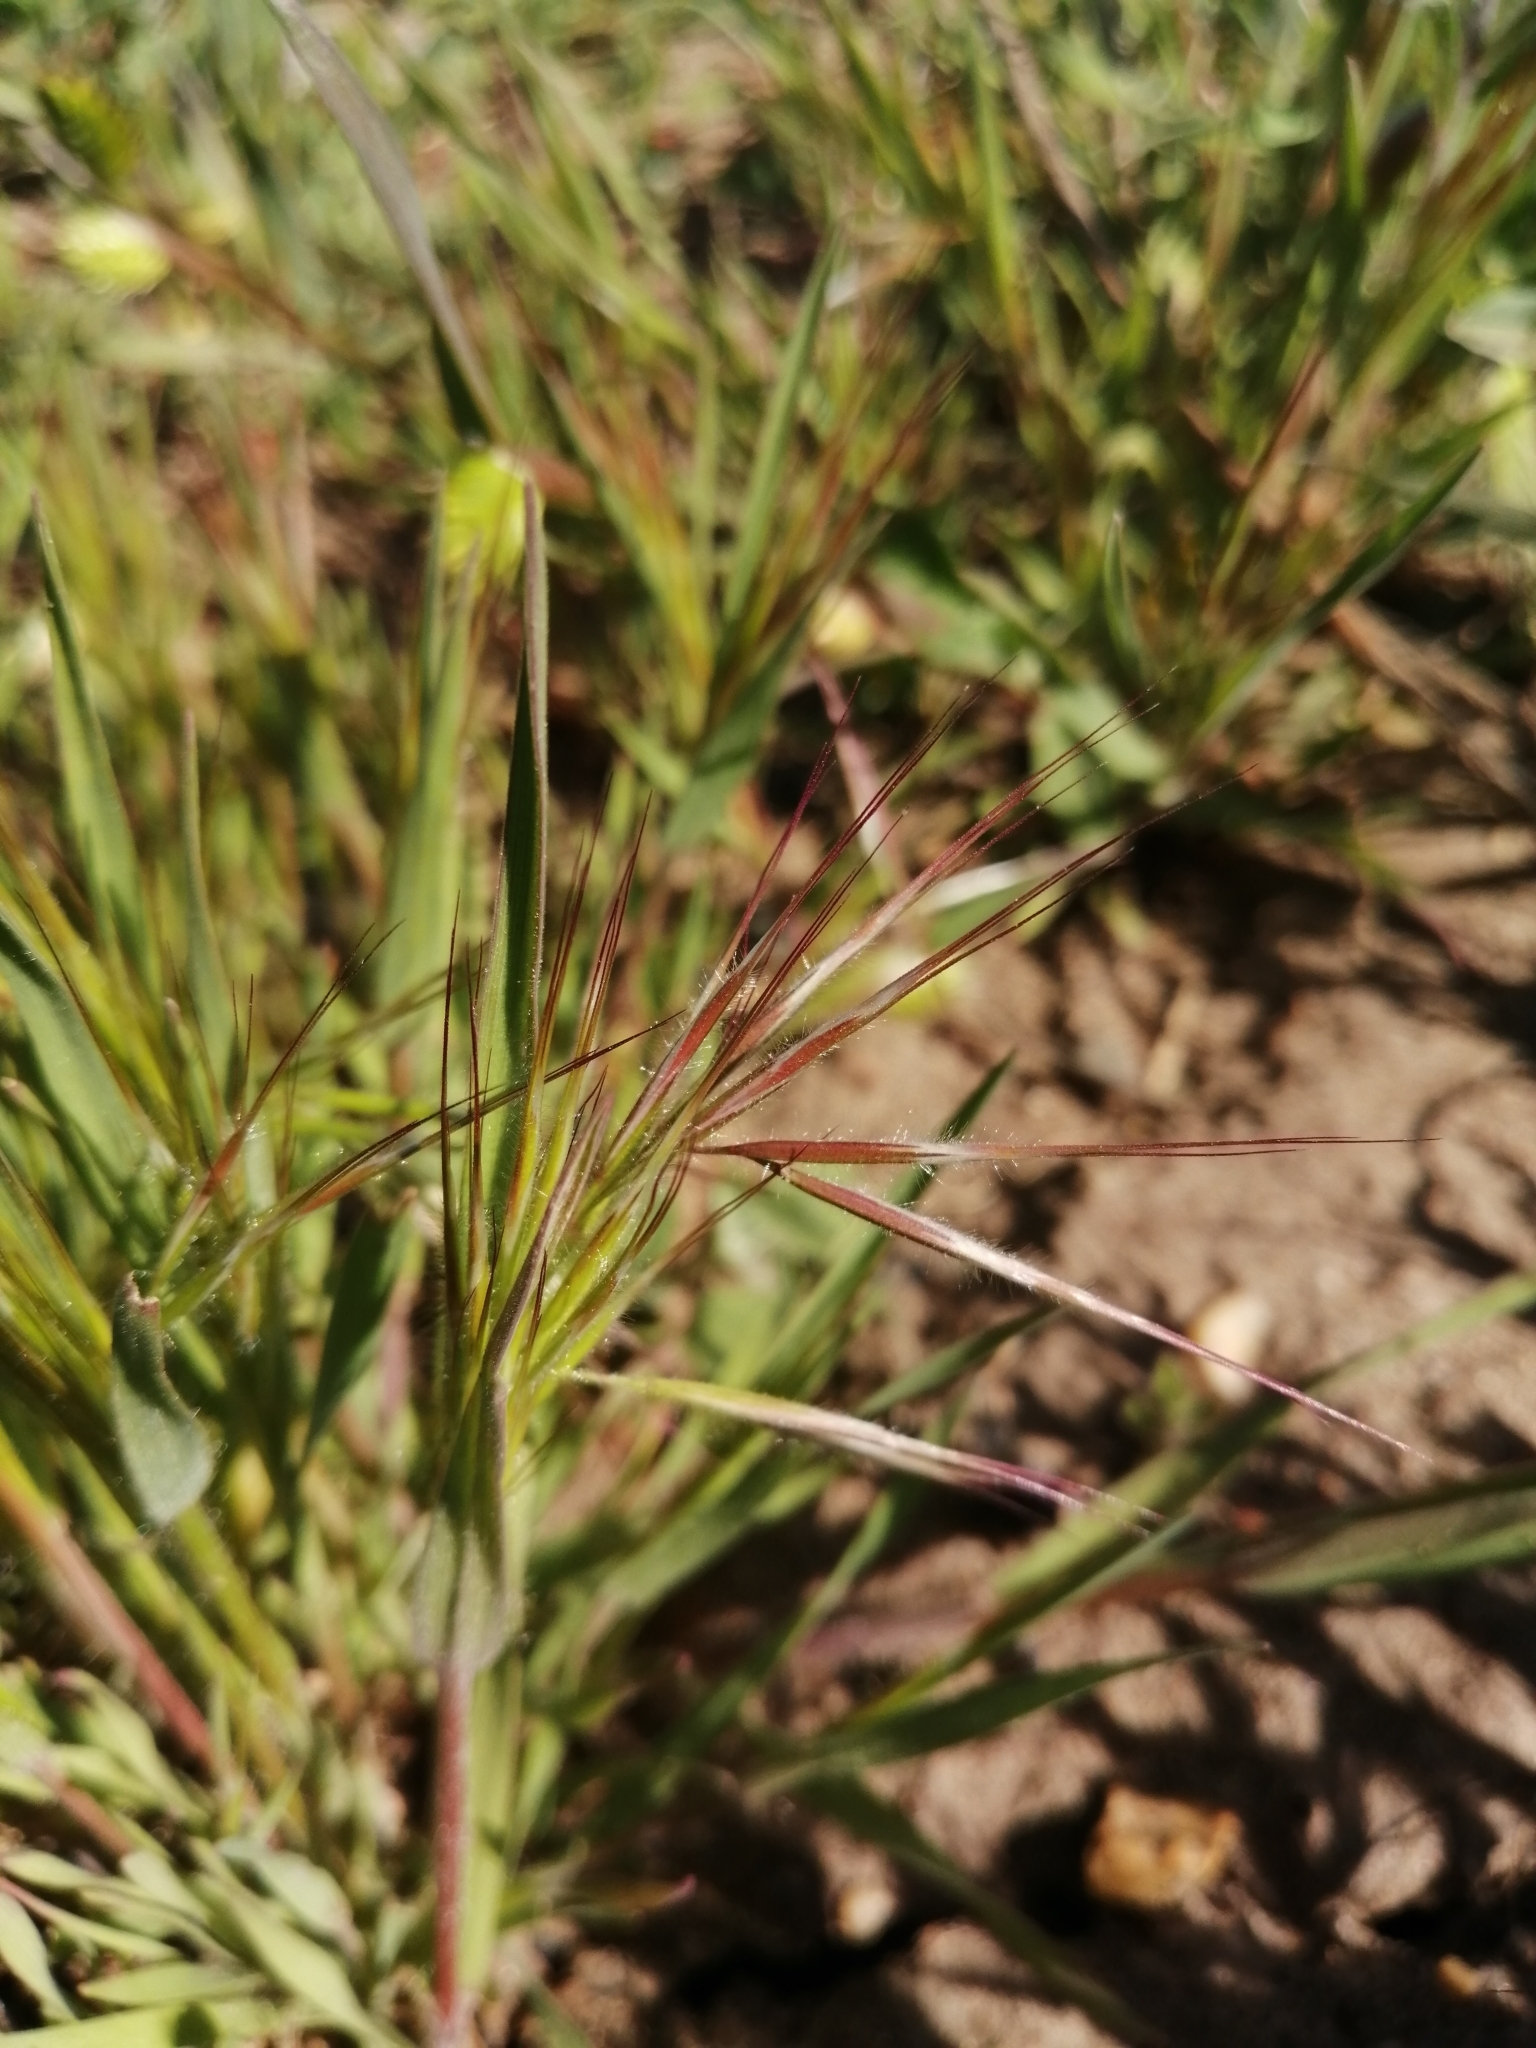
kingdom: Plantae
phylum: Tracheophyta
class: Liliopsida
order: Poales
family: Poaceae
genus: Bromus
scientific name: Bromus tectorum
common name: Cheatgrass
